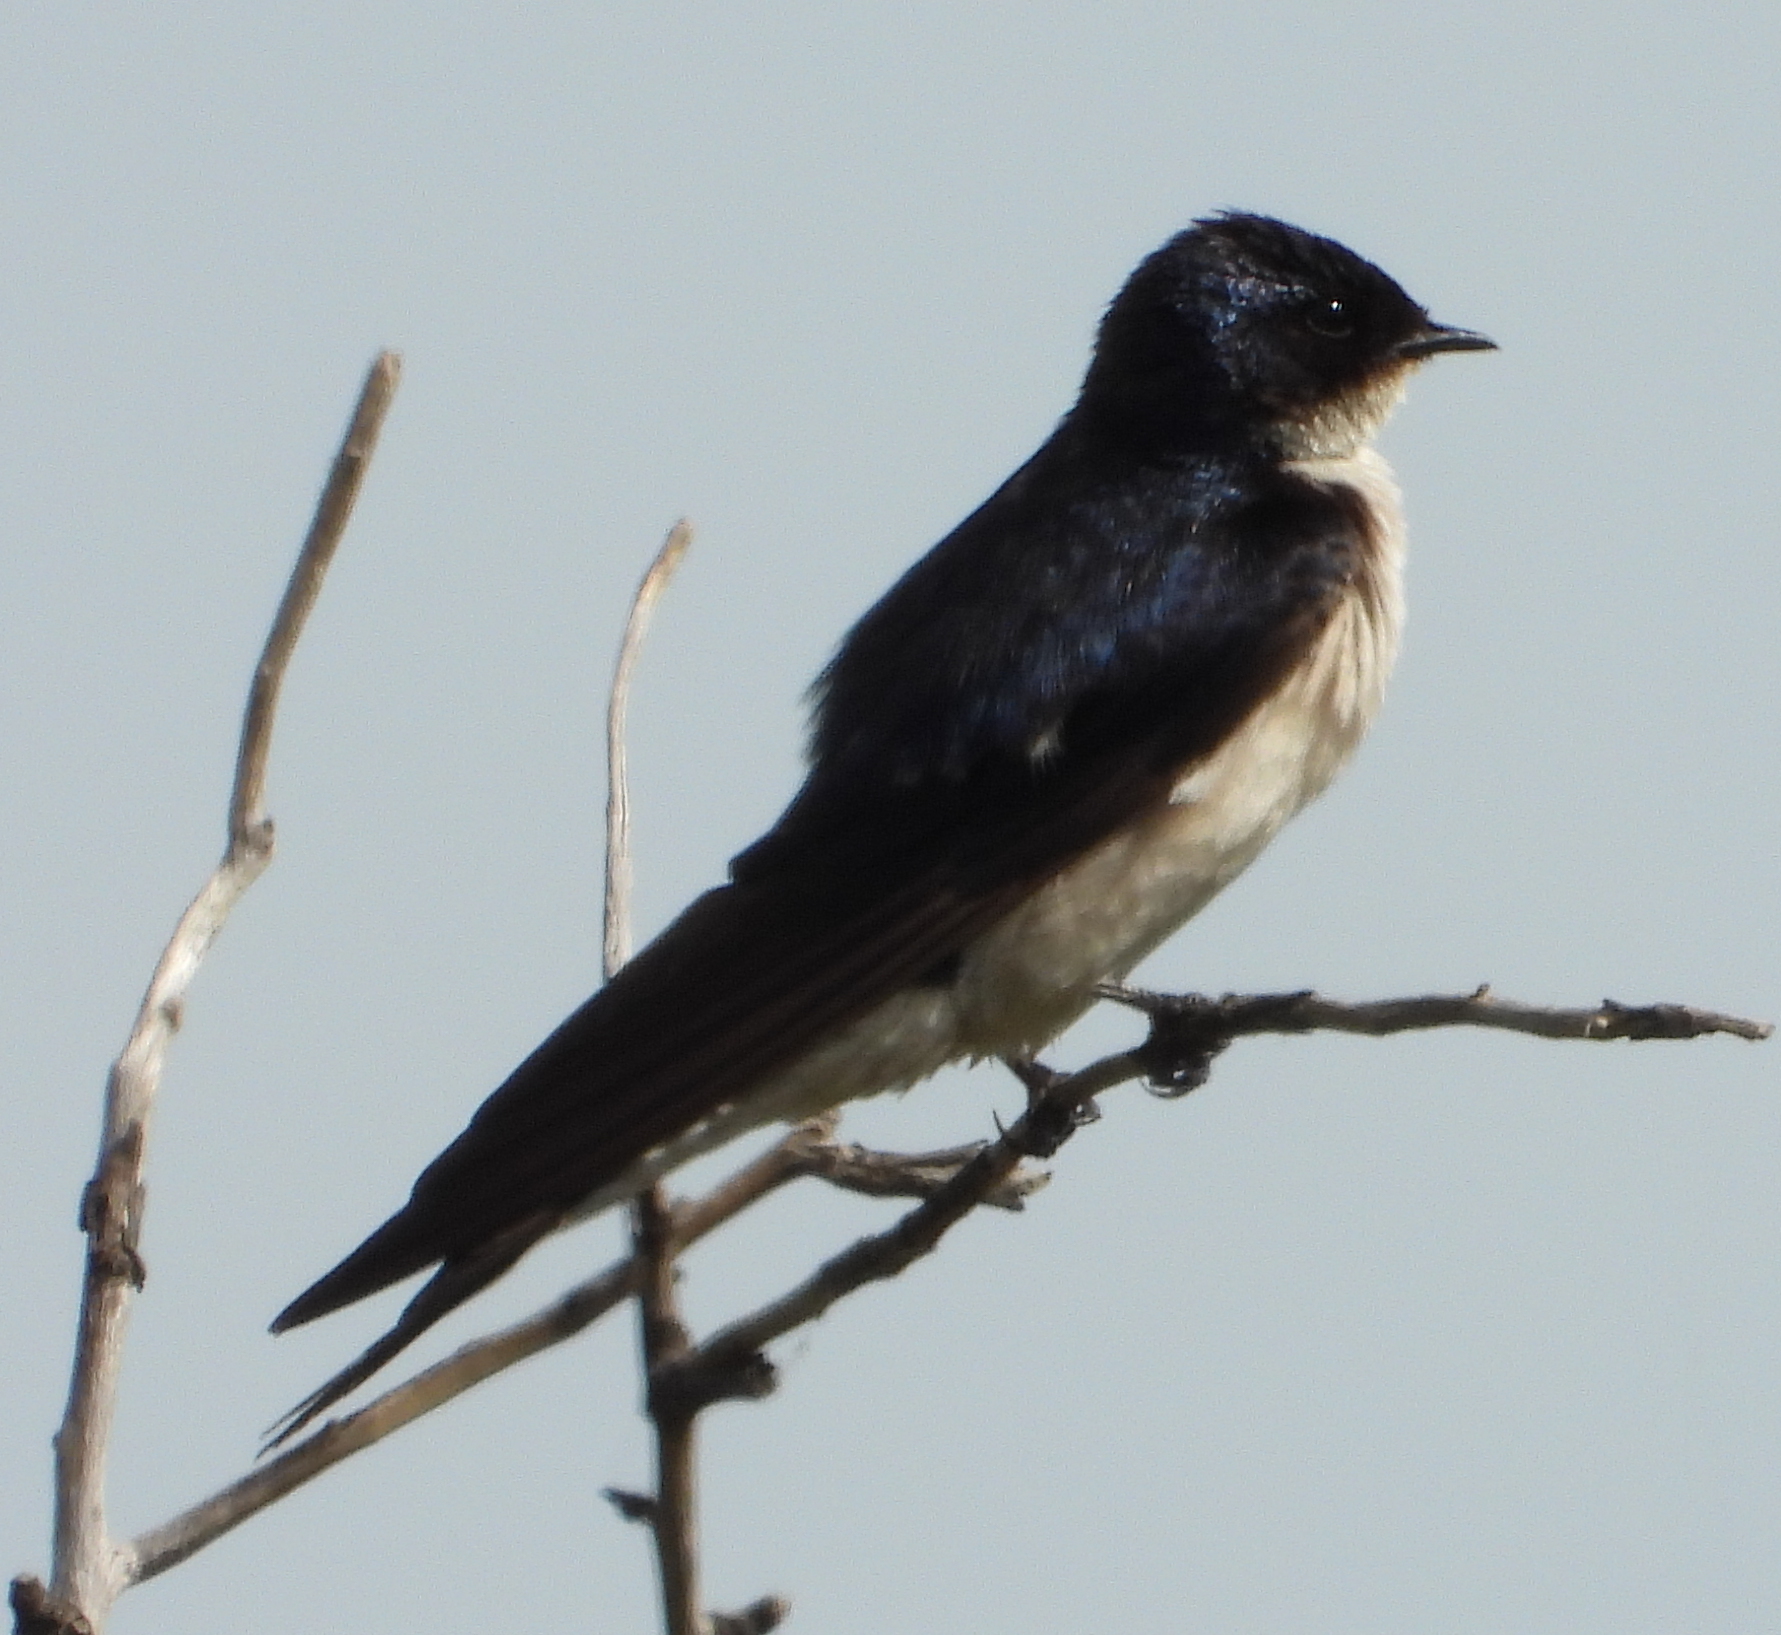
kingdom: Animalia
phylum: Chordata
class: Aves
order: Passeriformes
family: Hirundinidae
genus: Hirundo
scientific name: Hirundo dimidiata
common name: Pearl-breasted swallow
